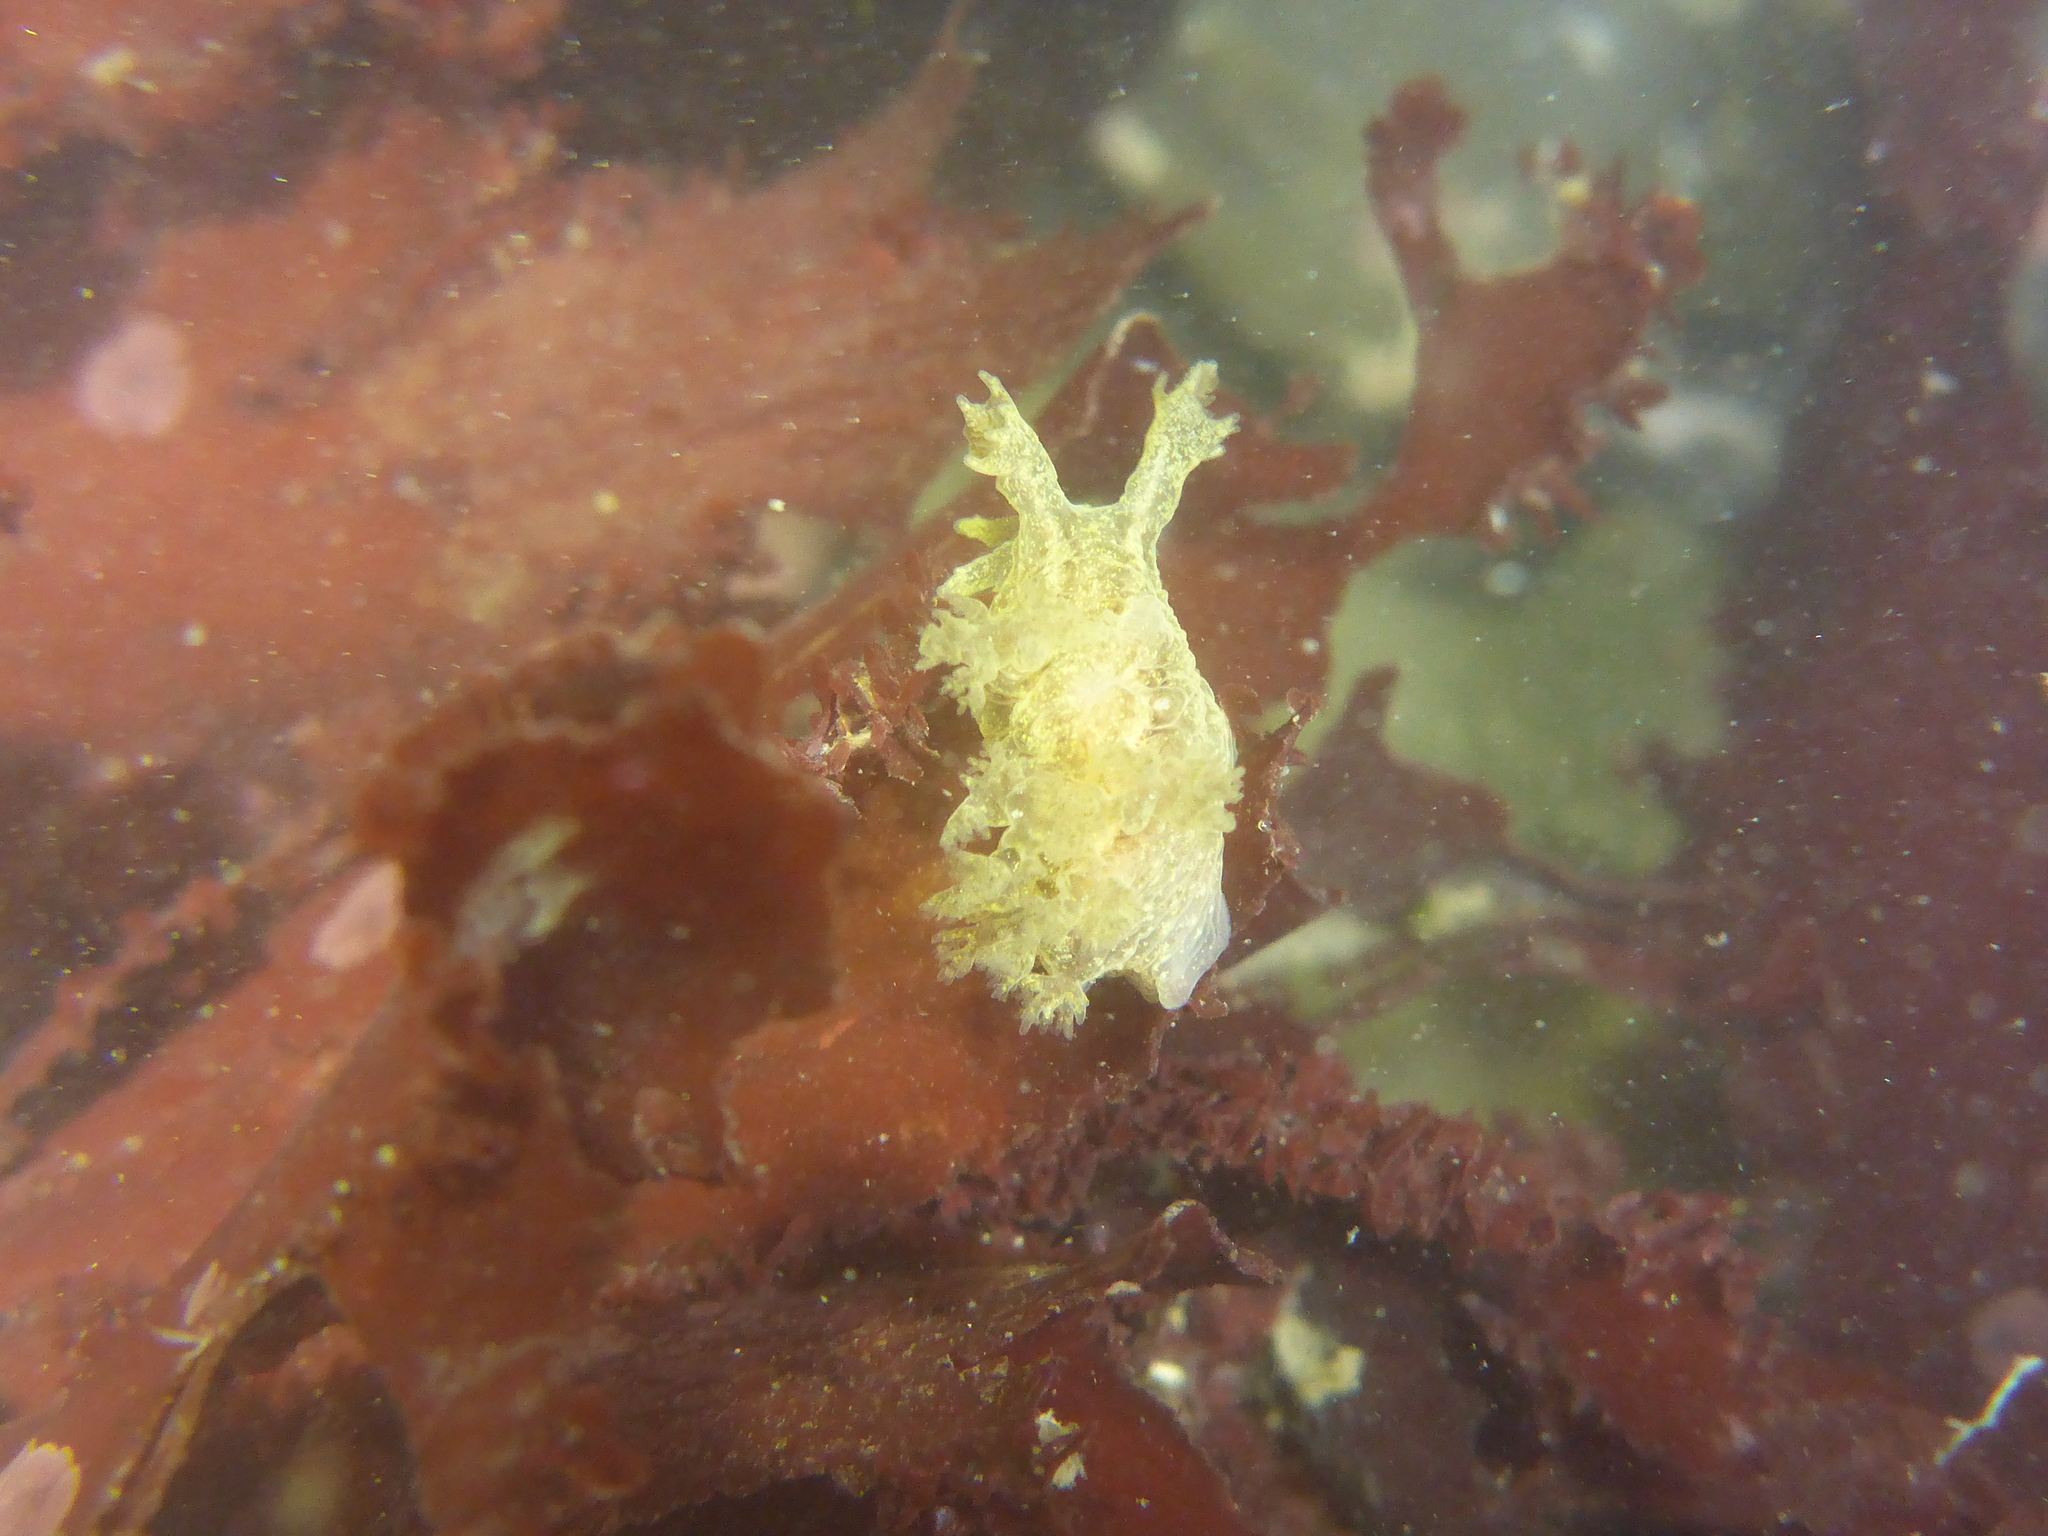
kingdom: Animalia
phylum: Mollusca
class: Gastropoda
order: Nudibranchia
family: Dendronotidae
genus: Dendronotus
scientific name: Dendronotus subramosus
